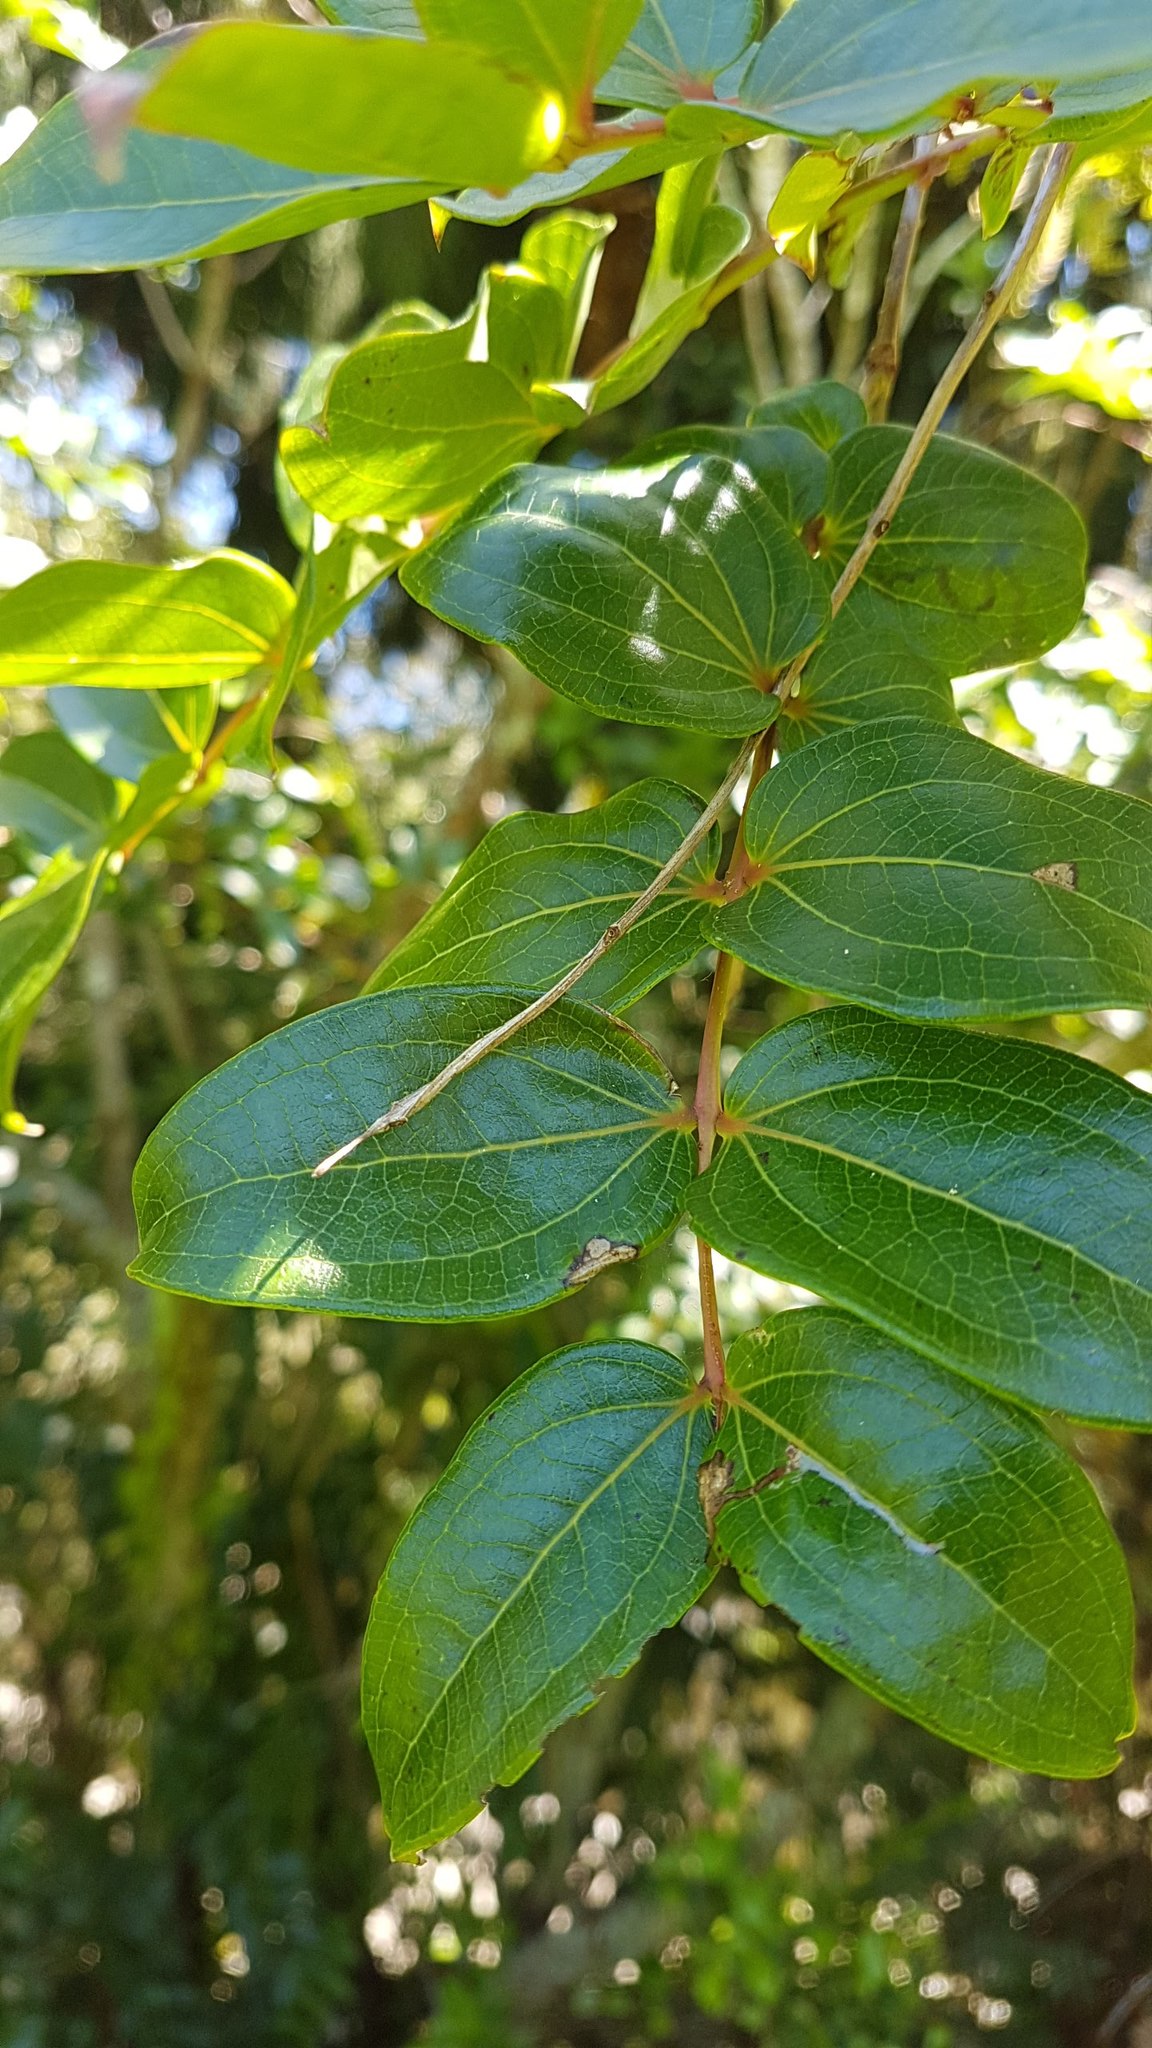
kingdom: Plantae
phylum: Tracheophyta
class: Magnoliopsida
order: Cucurbitales
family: Coriariaceae
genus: Coriaria
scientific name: Coriaria arborea
